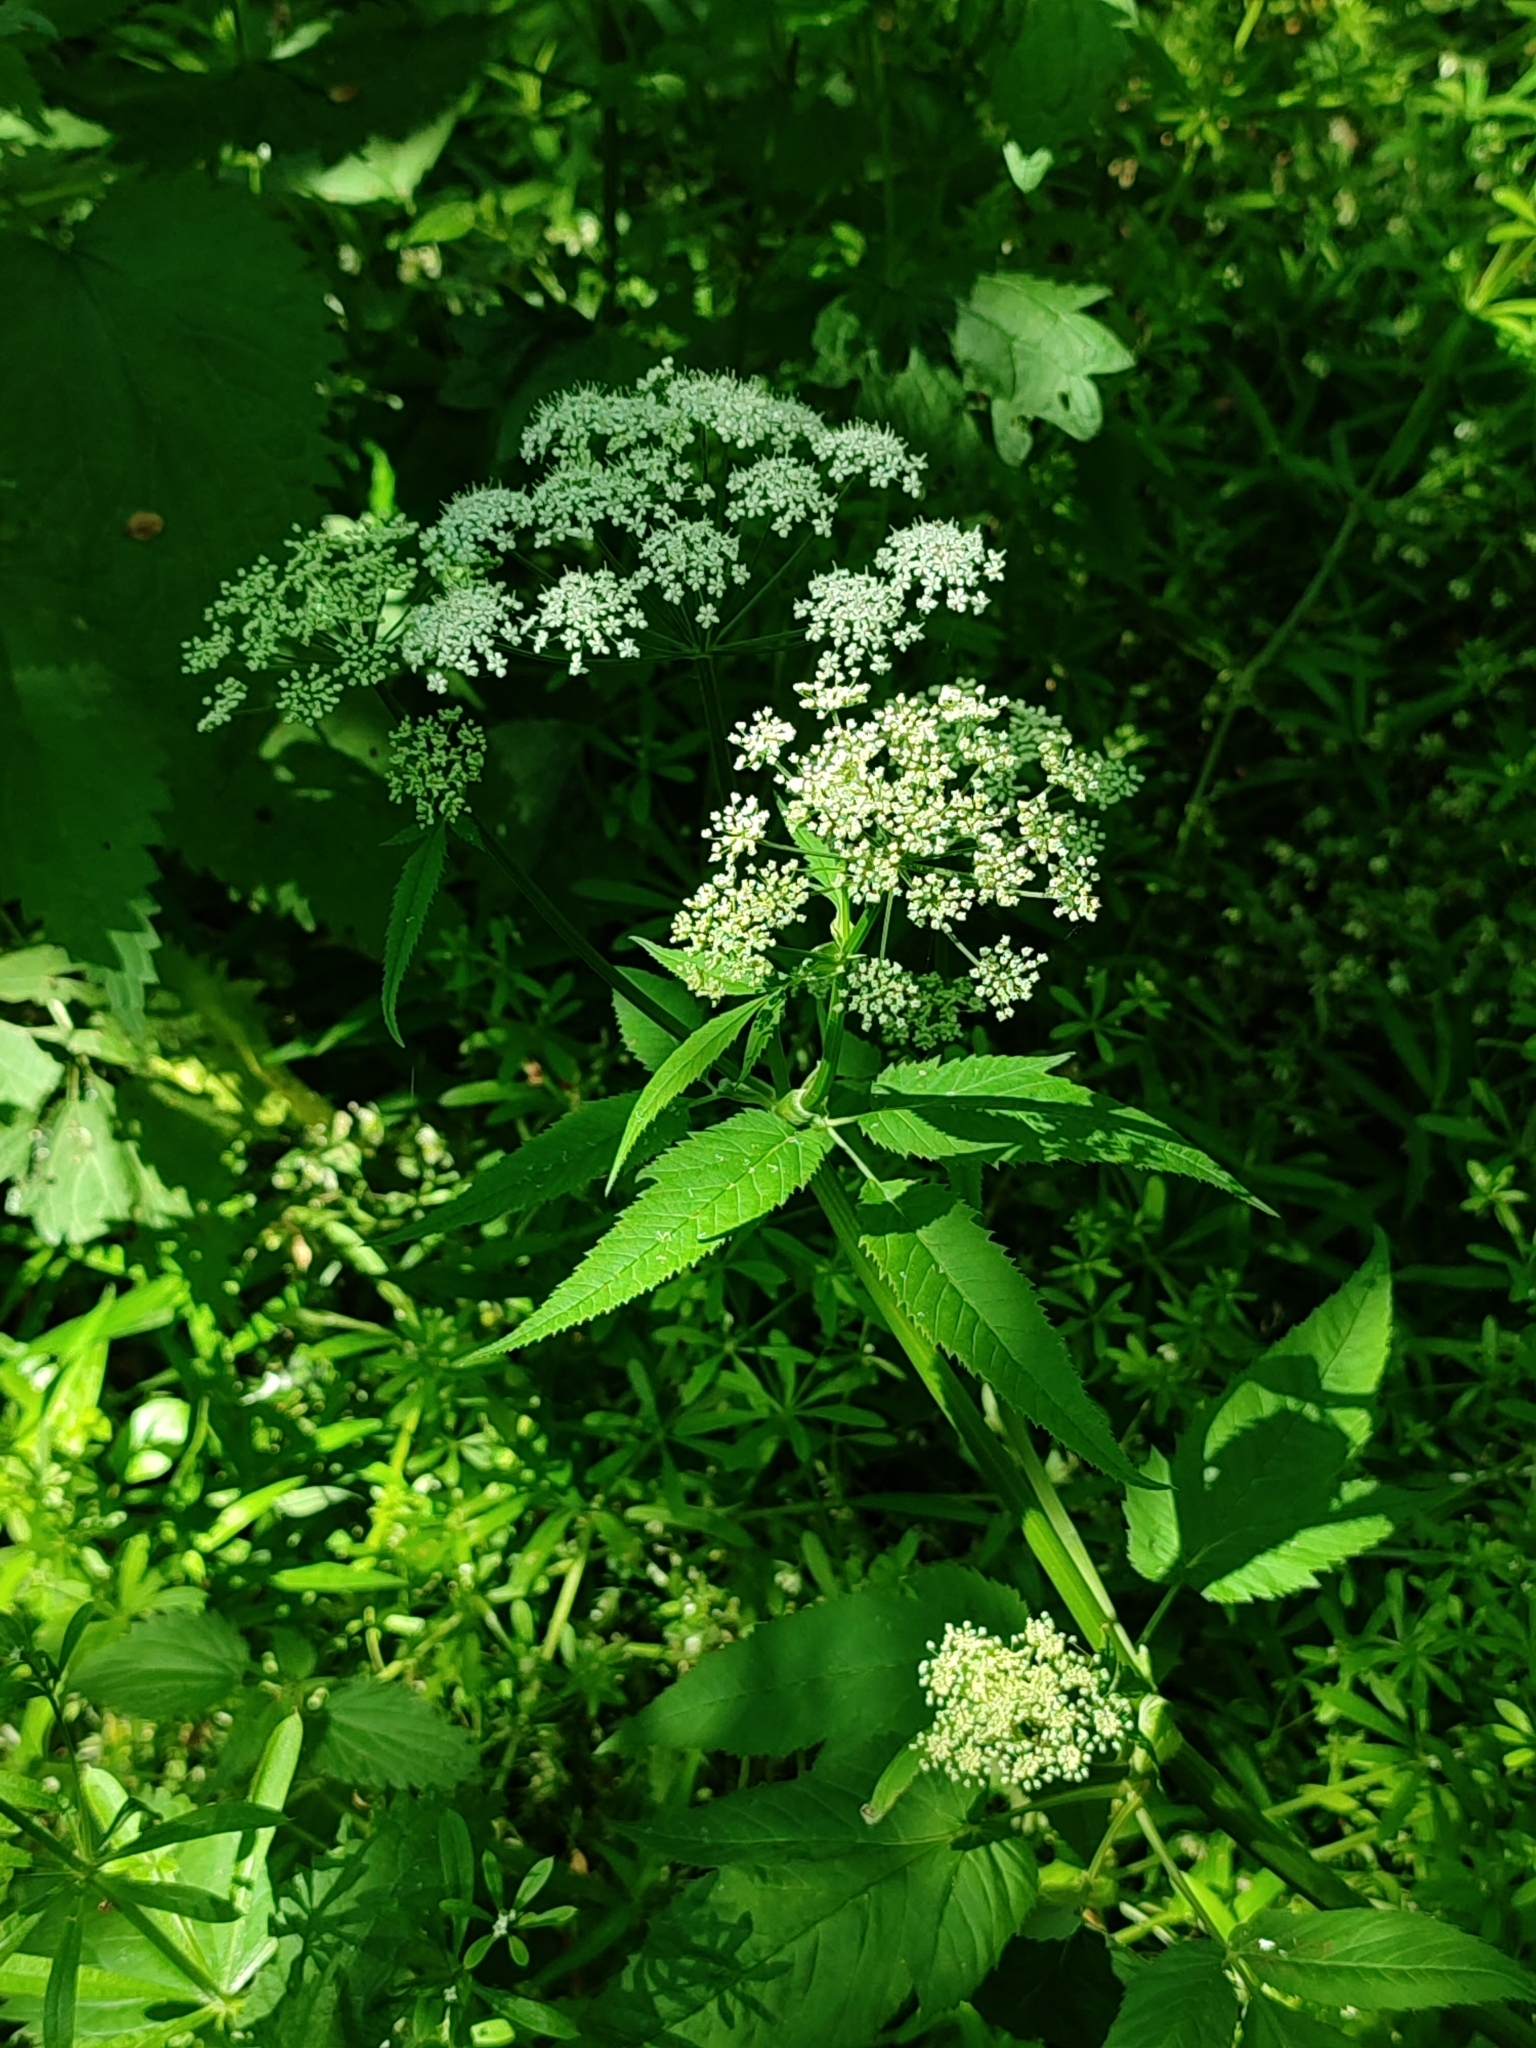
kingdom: Plantae
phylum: Tracheophyta
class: Magnoliopsida
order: Apiales
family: Apiaceae
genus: Aegopodium
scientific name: Aegopodium podagraria
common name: Ground-elder
